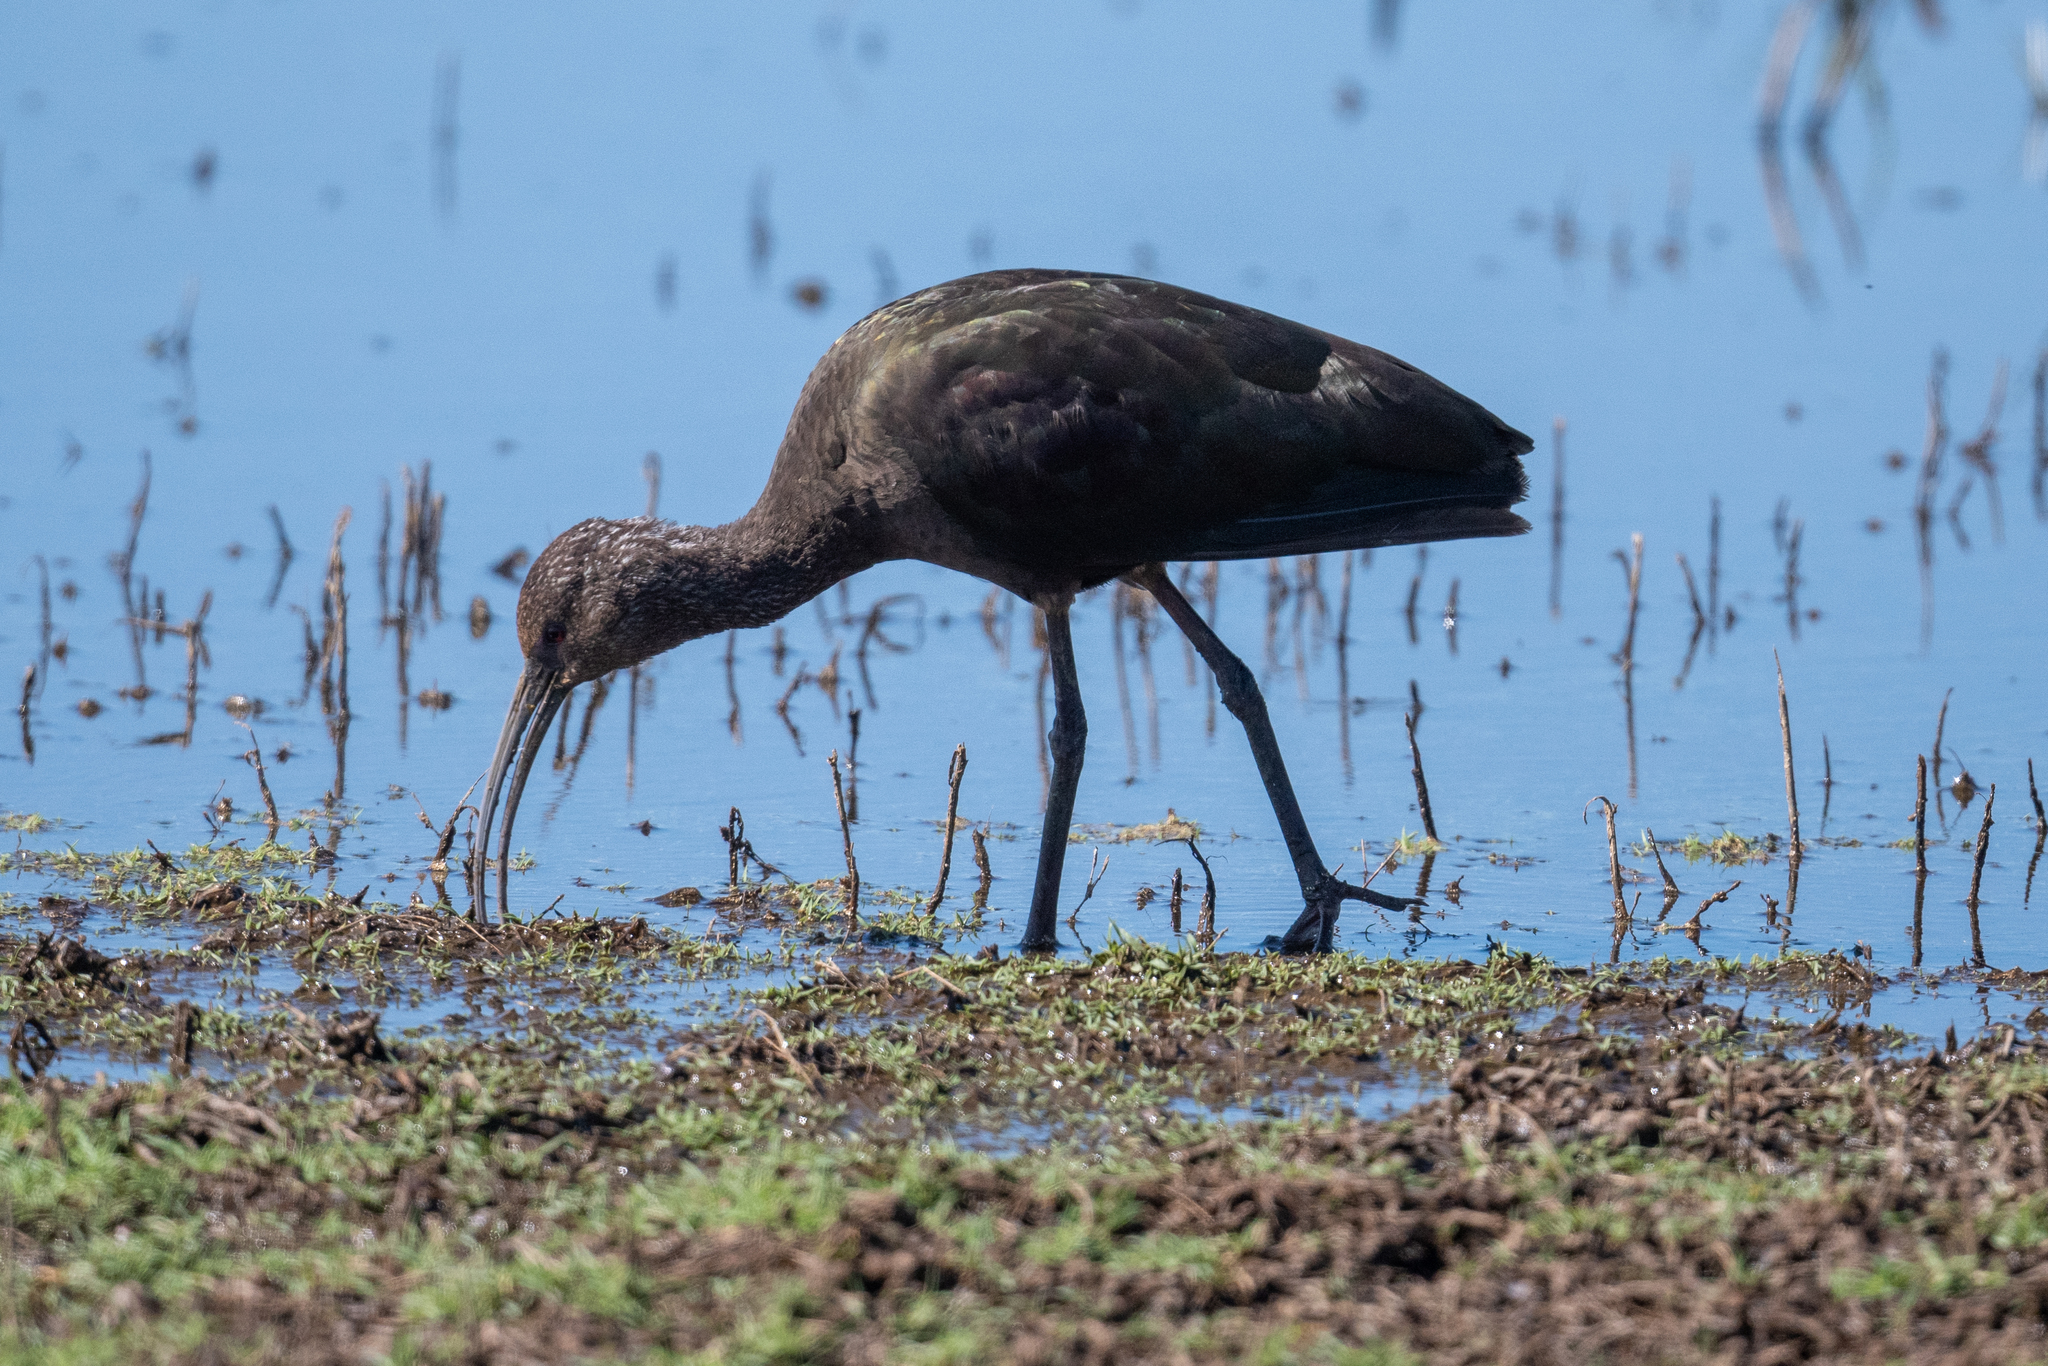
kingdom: Animalia
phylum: Chordata
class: Aves
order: Pelecaniformes
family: Threskiornithidae
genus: Plegadis
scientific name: Plegadis chihi
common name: White-faced ibis
